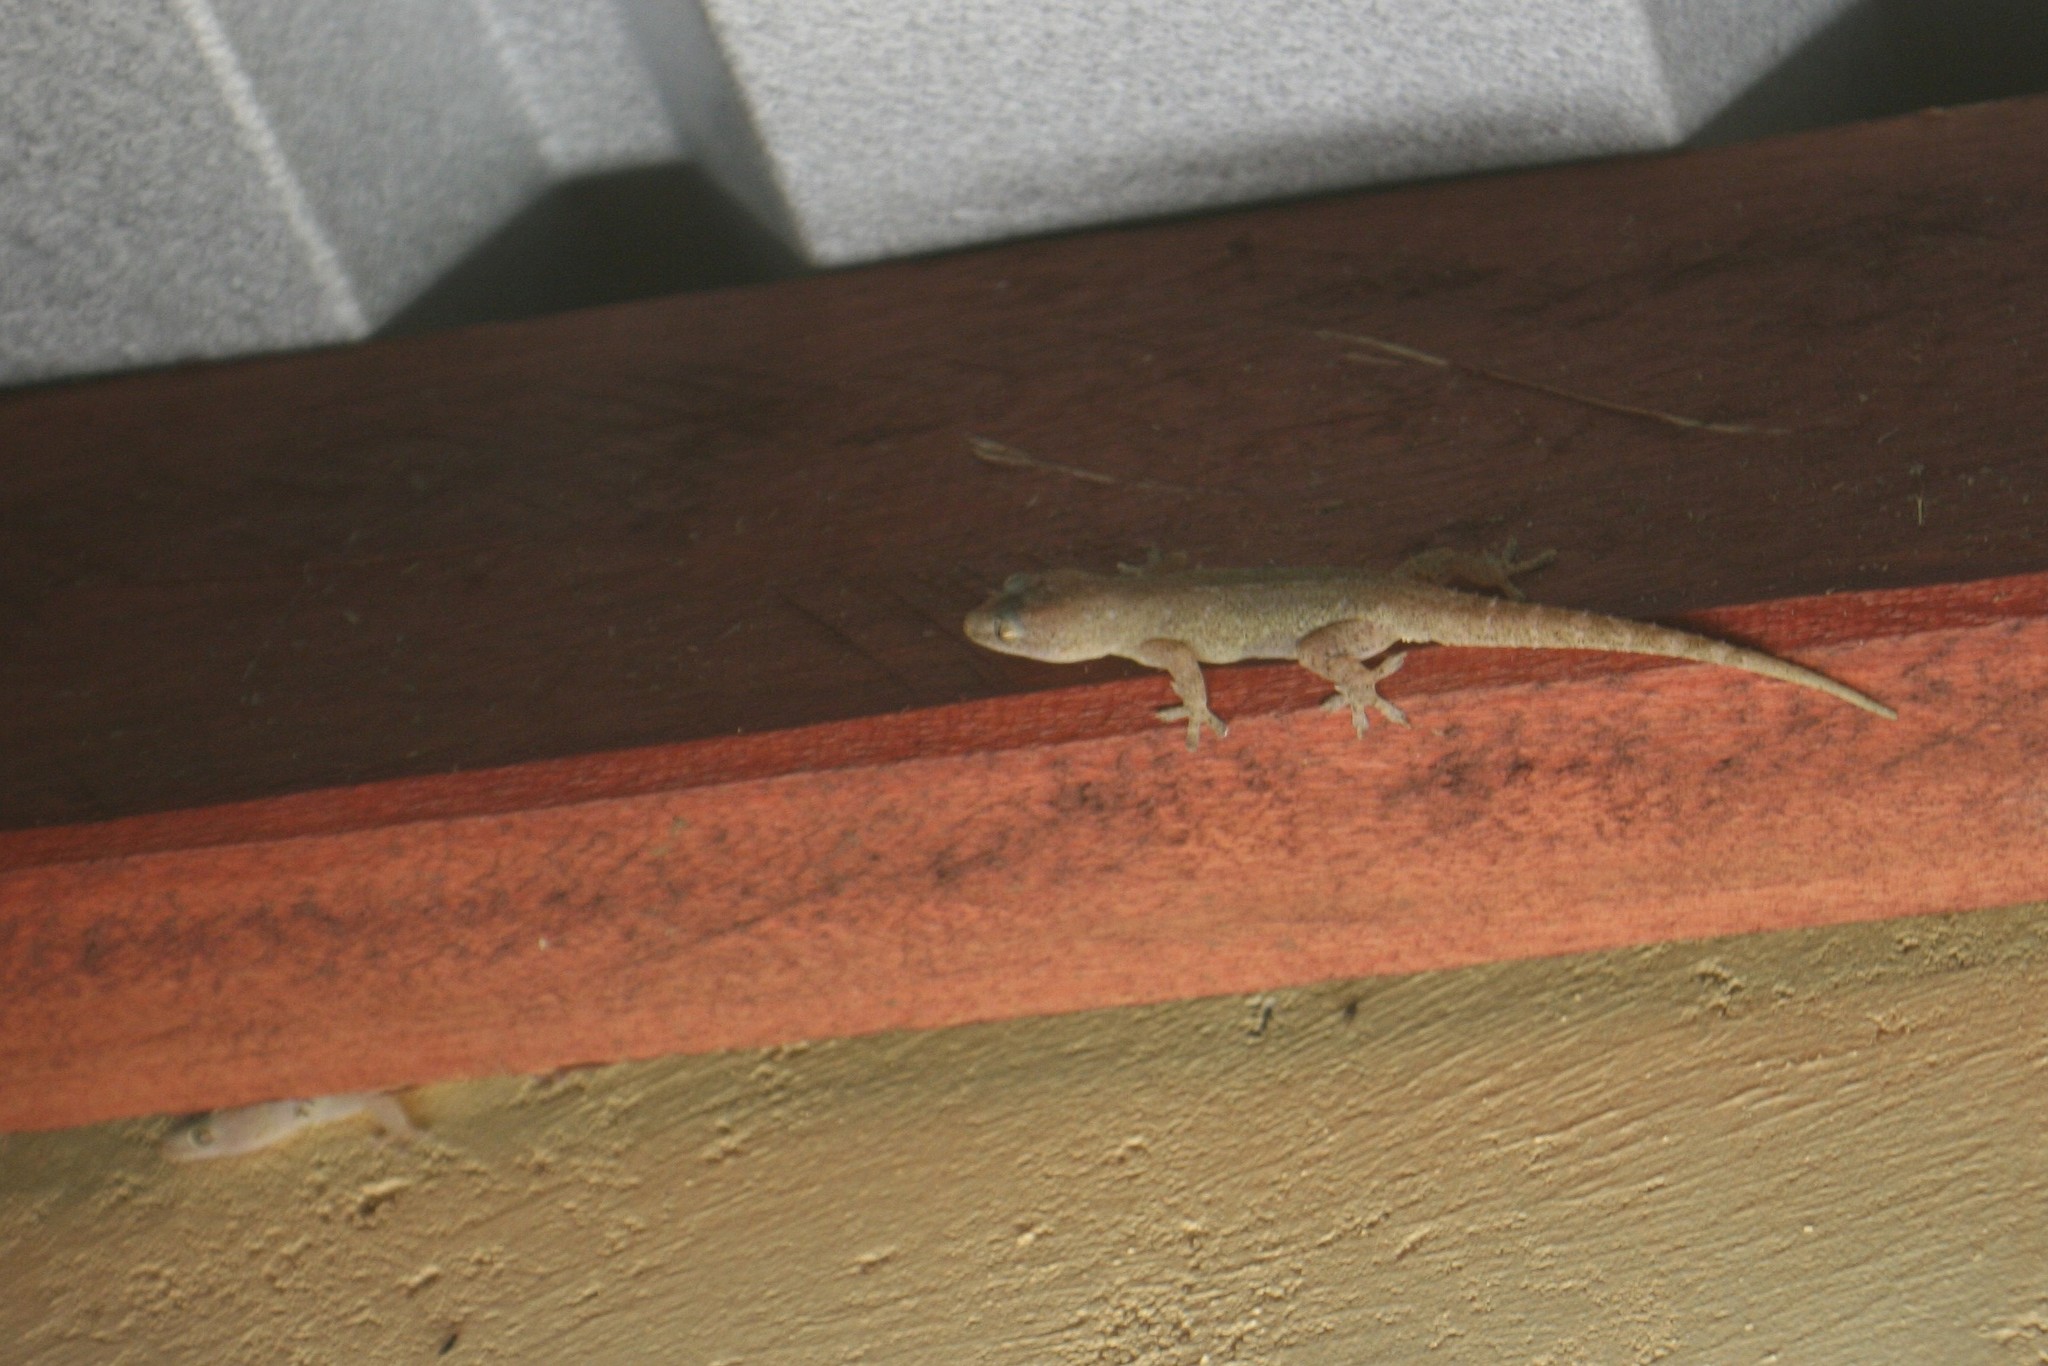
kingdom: Animalia
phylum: Chordata
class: Squamata
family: Gekkonidae
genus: Hemidactylus
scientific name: Hemidactylus frenatus
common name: Common house gecko
